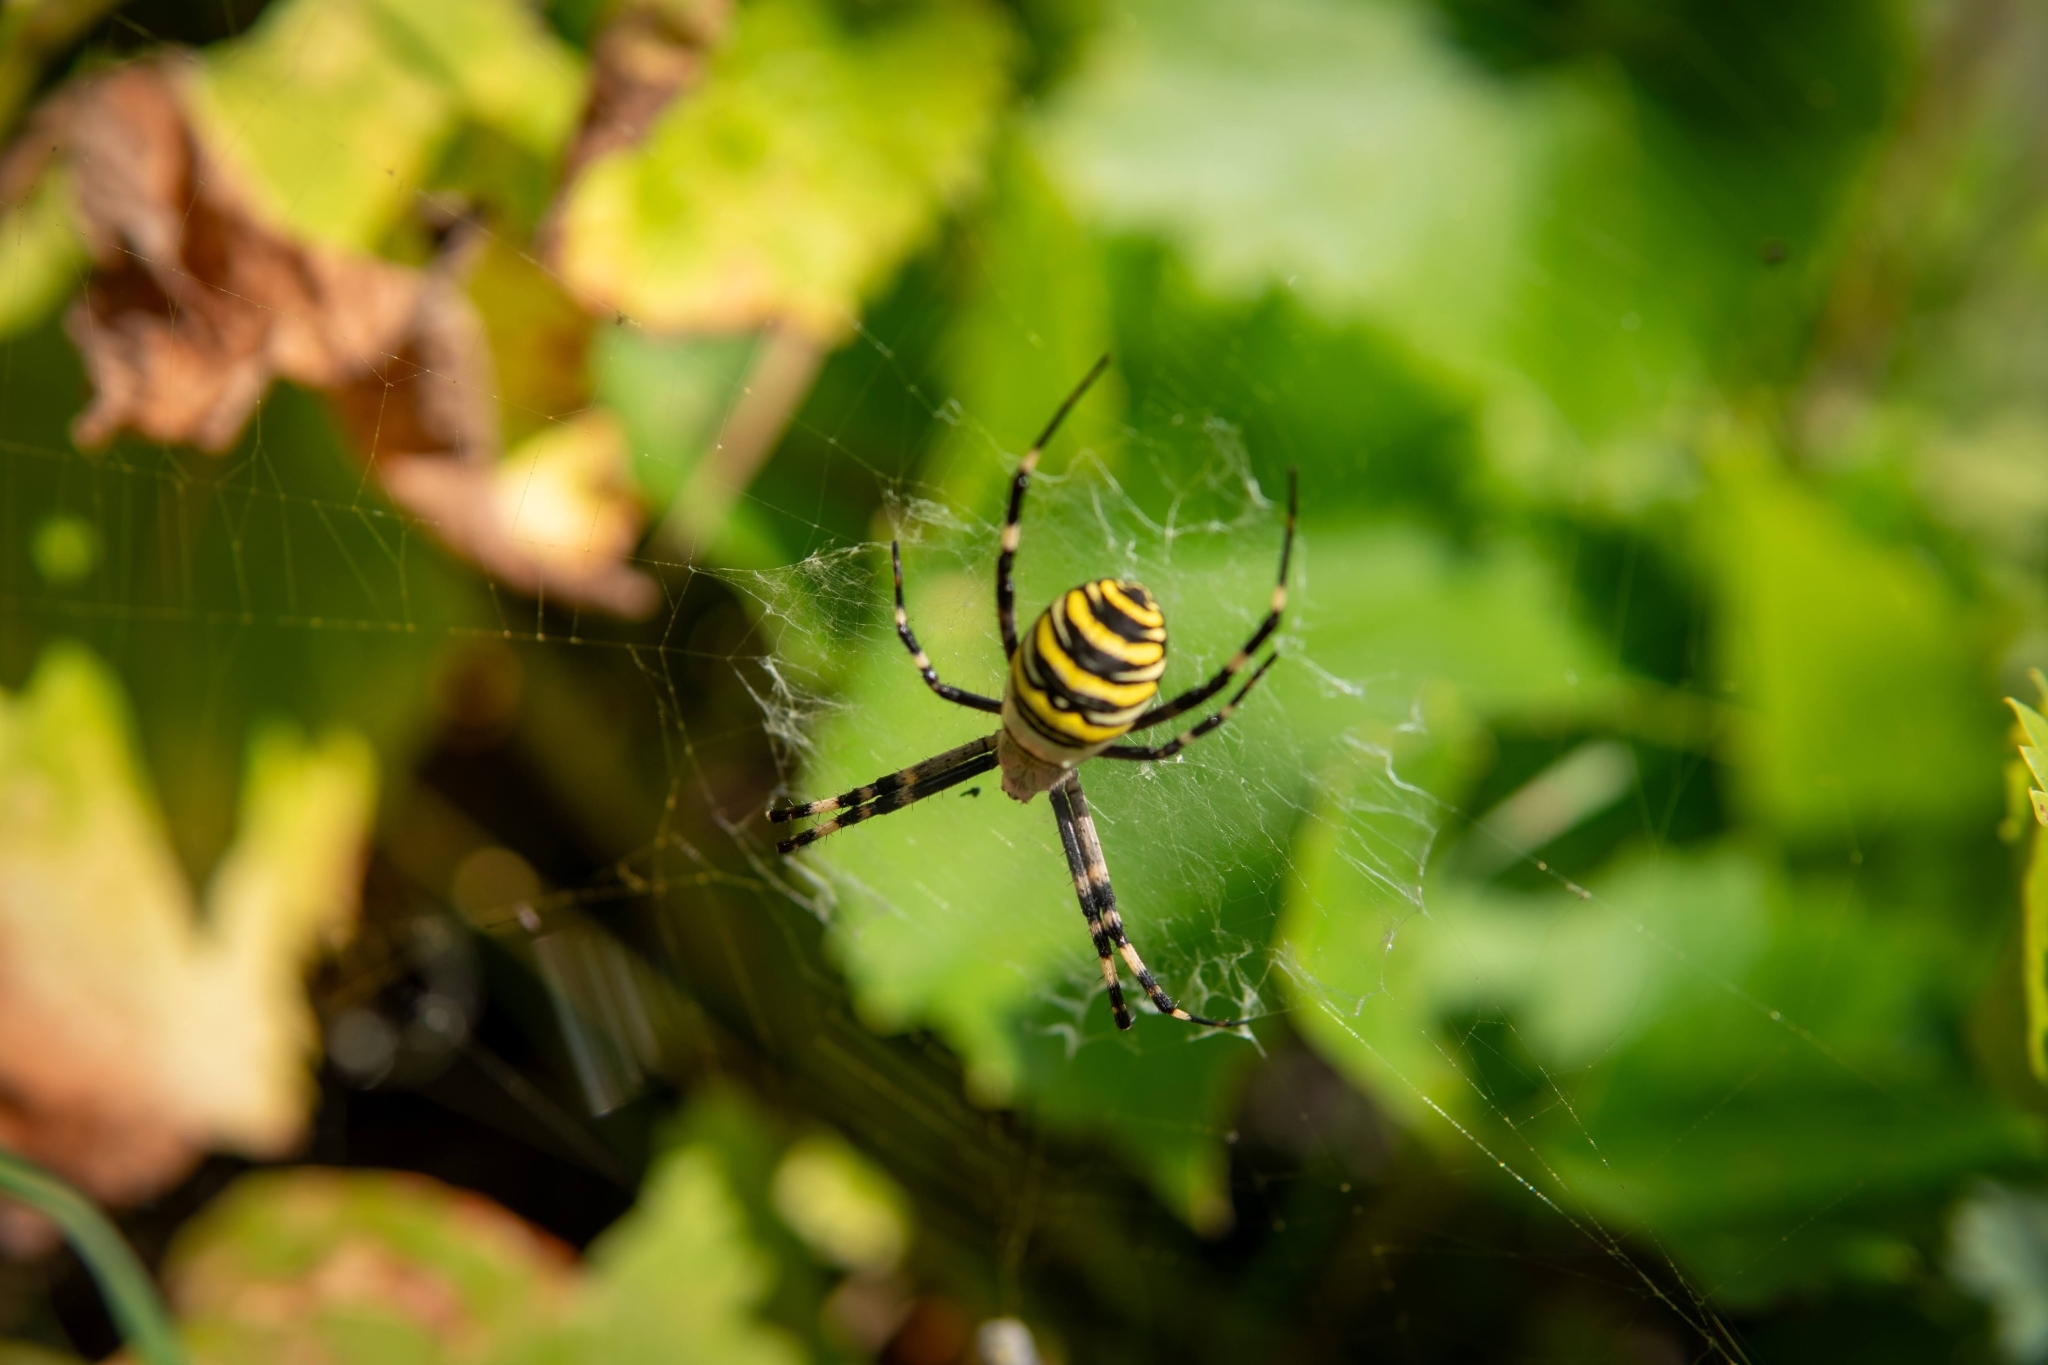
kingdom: Animalia
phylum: Arthropoda
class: Arachnida
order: Araneae
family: Araneidae
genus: Argiope
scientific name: Argiope bruennichi
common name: Wasp spider
